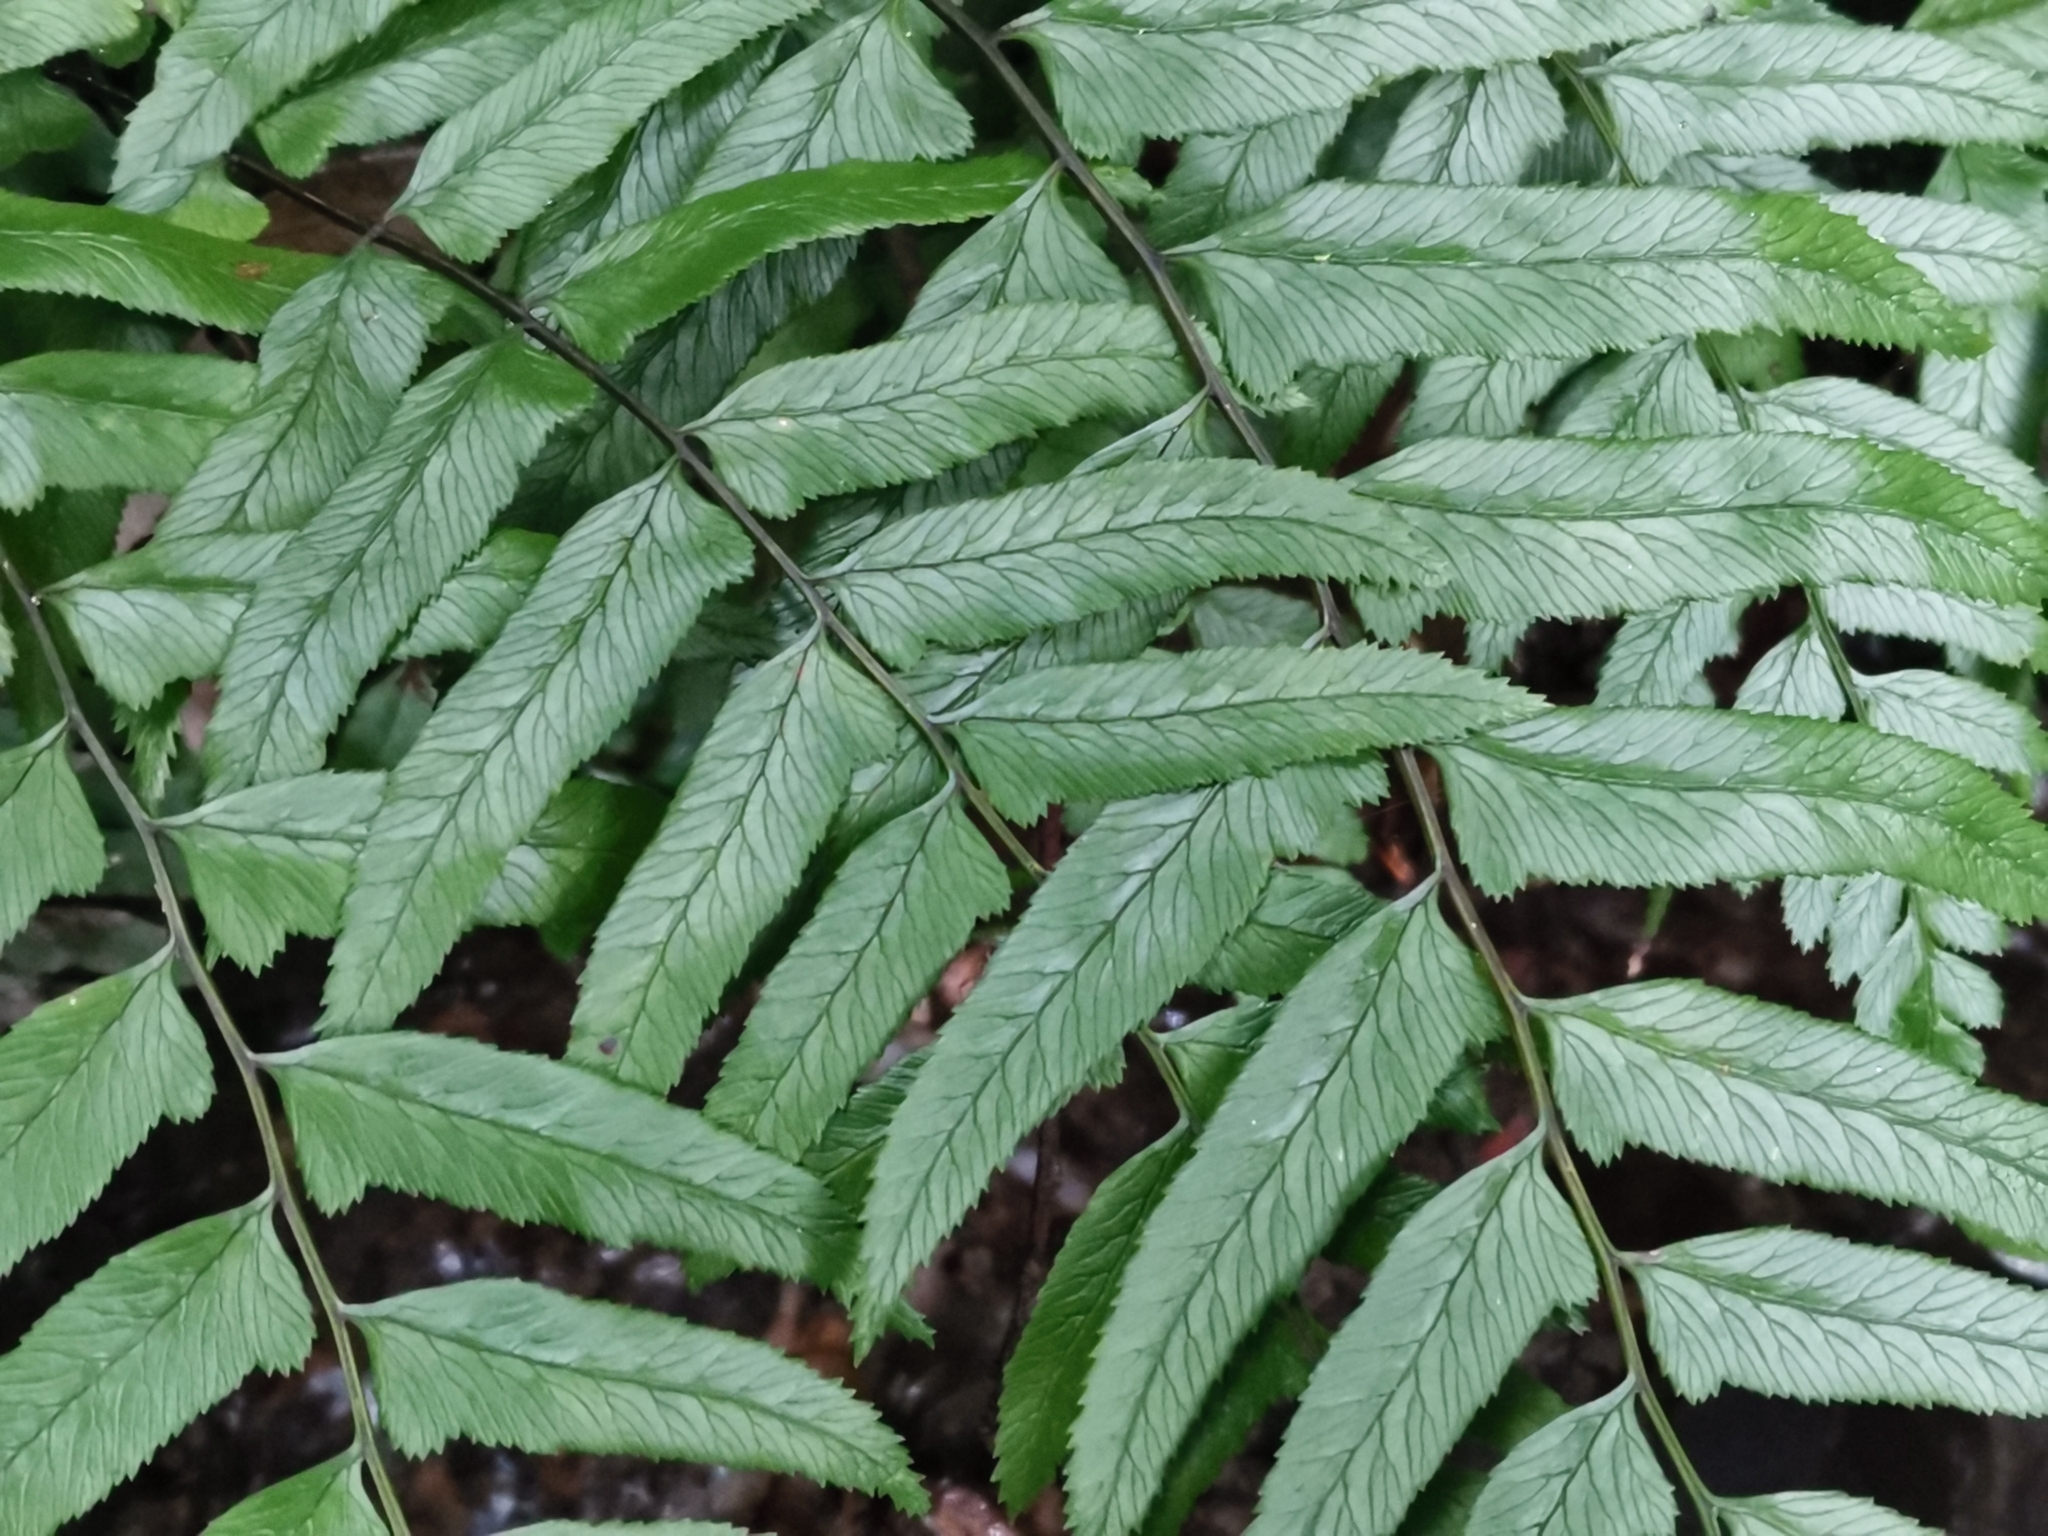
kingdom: Plantae
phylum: Tracheophyta
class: Polypodiopsida
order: Polypodiales
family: Athyriaceae
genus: Diplazium
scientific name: Diplazium wichurae
